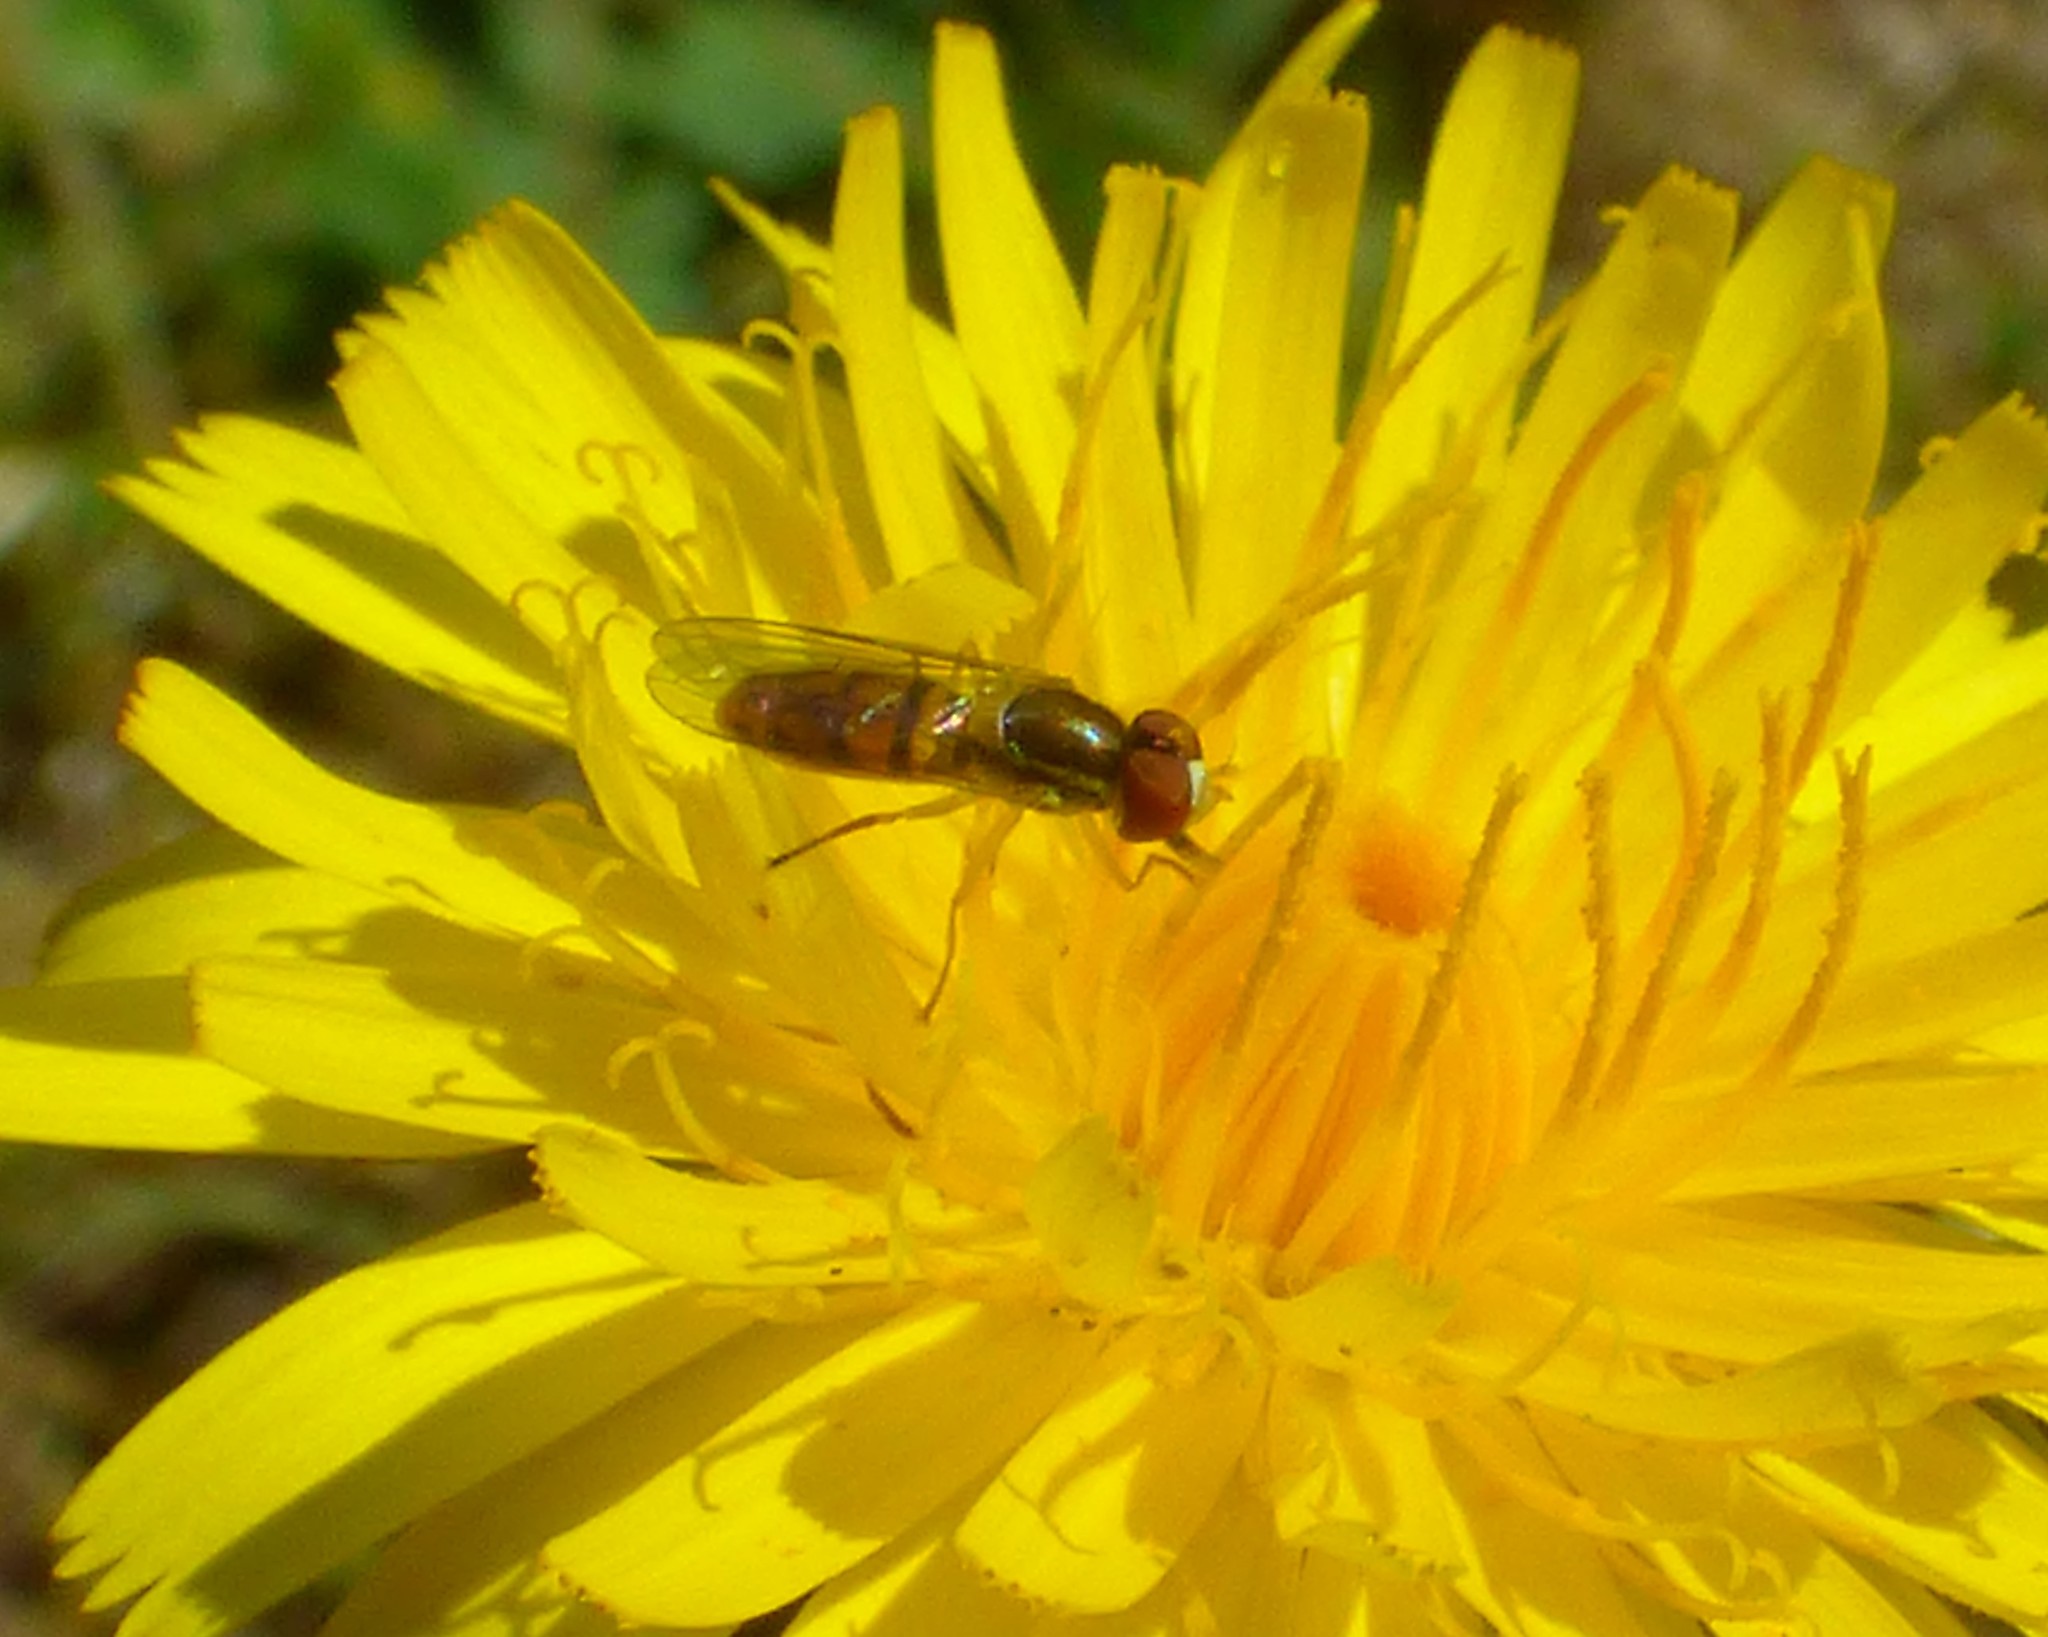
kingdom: Animalia
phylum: Arthropoda
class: Insecta
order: Diptera
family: Syrphidae
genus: Toxomerus
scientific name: Toxomerus marginatus
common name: Syrphid fly
